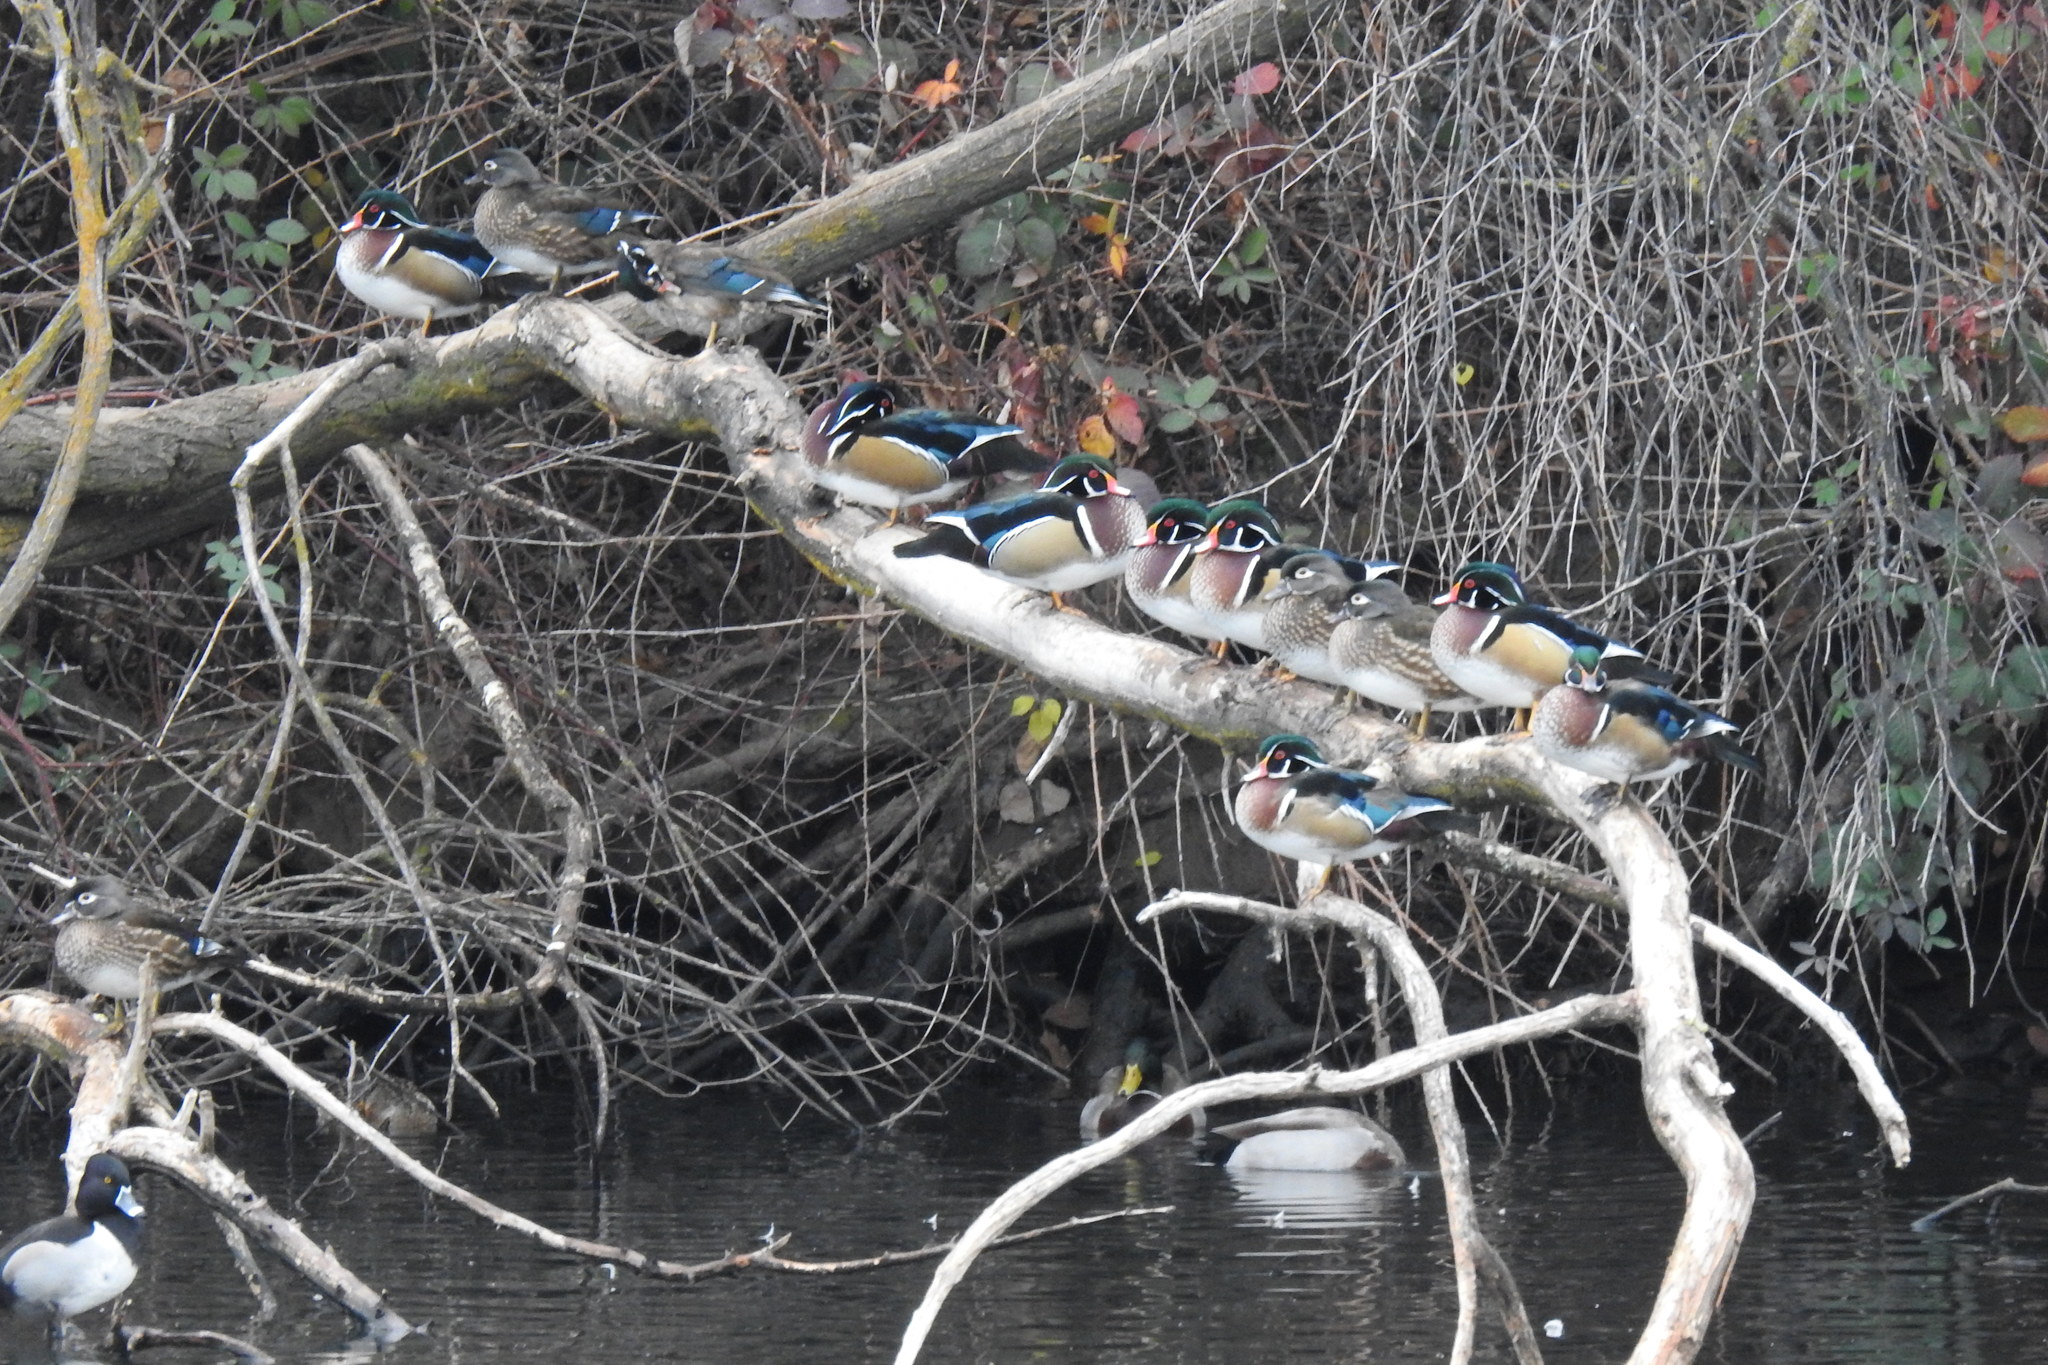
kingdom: Animalia
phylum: Chordata
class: Aves
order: Anseriformes
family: Anatidae
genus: Aix
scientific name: Aix sponsa
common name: Wood duck
